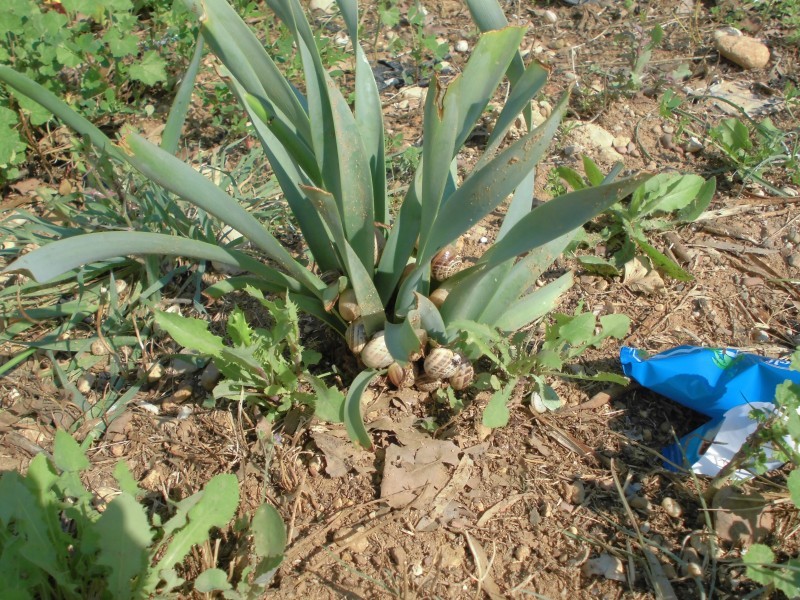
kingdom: Animalia
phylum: Mollusca
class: Gastropoda
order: Stylommatophora
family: Helicidae
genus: Eobania
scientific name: Eobania vermiculata
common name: Chocolateband snail
